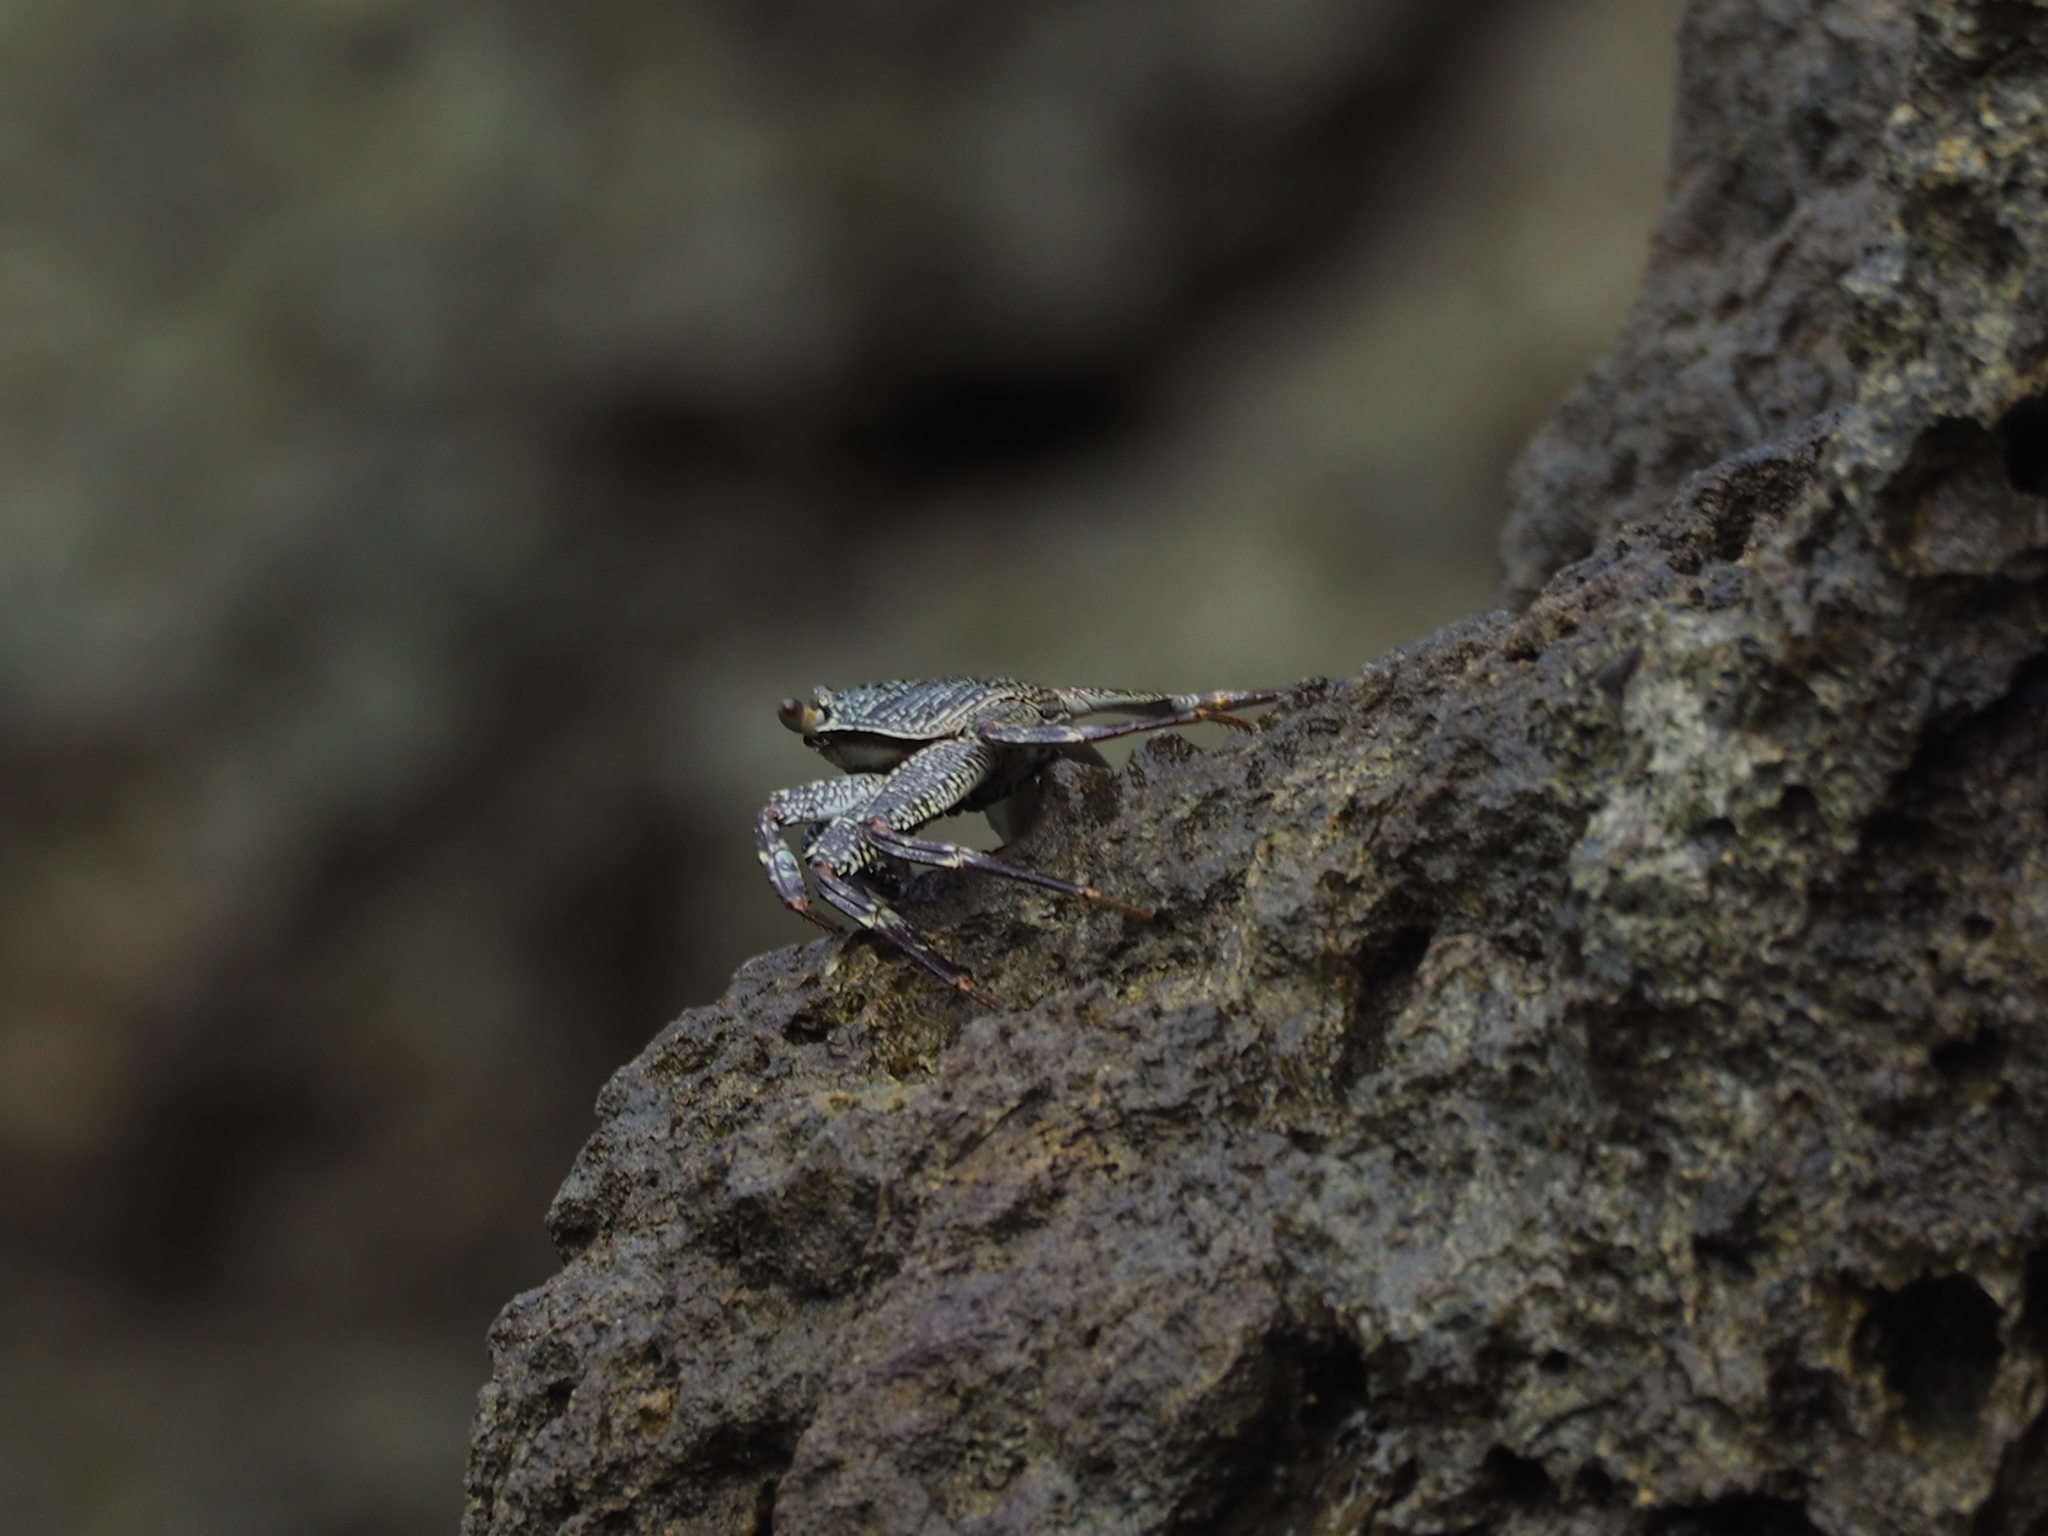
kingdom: Animalia
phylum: Arthropoda
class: Malacostraca
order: Decapoda
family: Grapsidae
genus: Grapsus
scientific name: Grapsus tenuicrustatus
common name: Natal lightfoot crab
